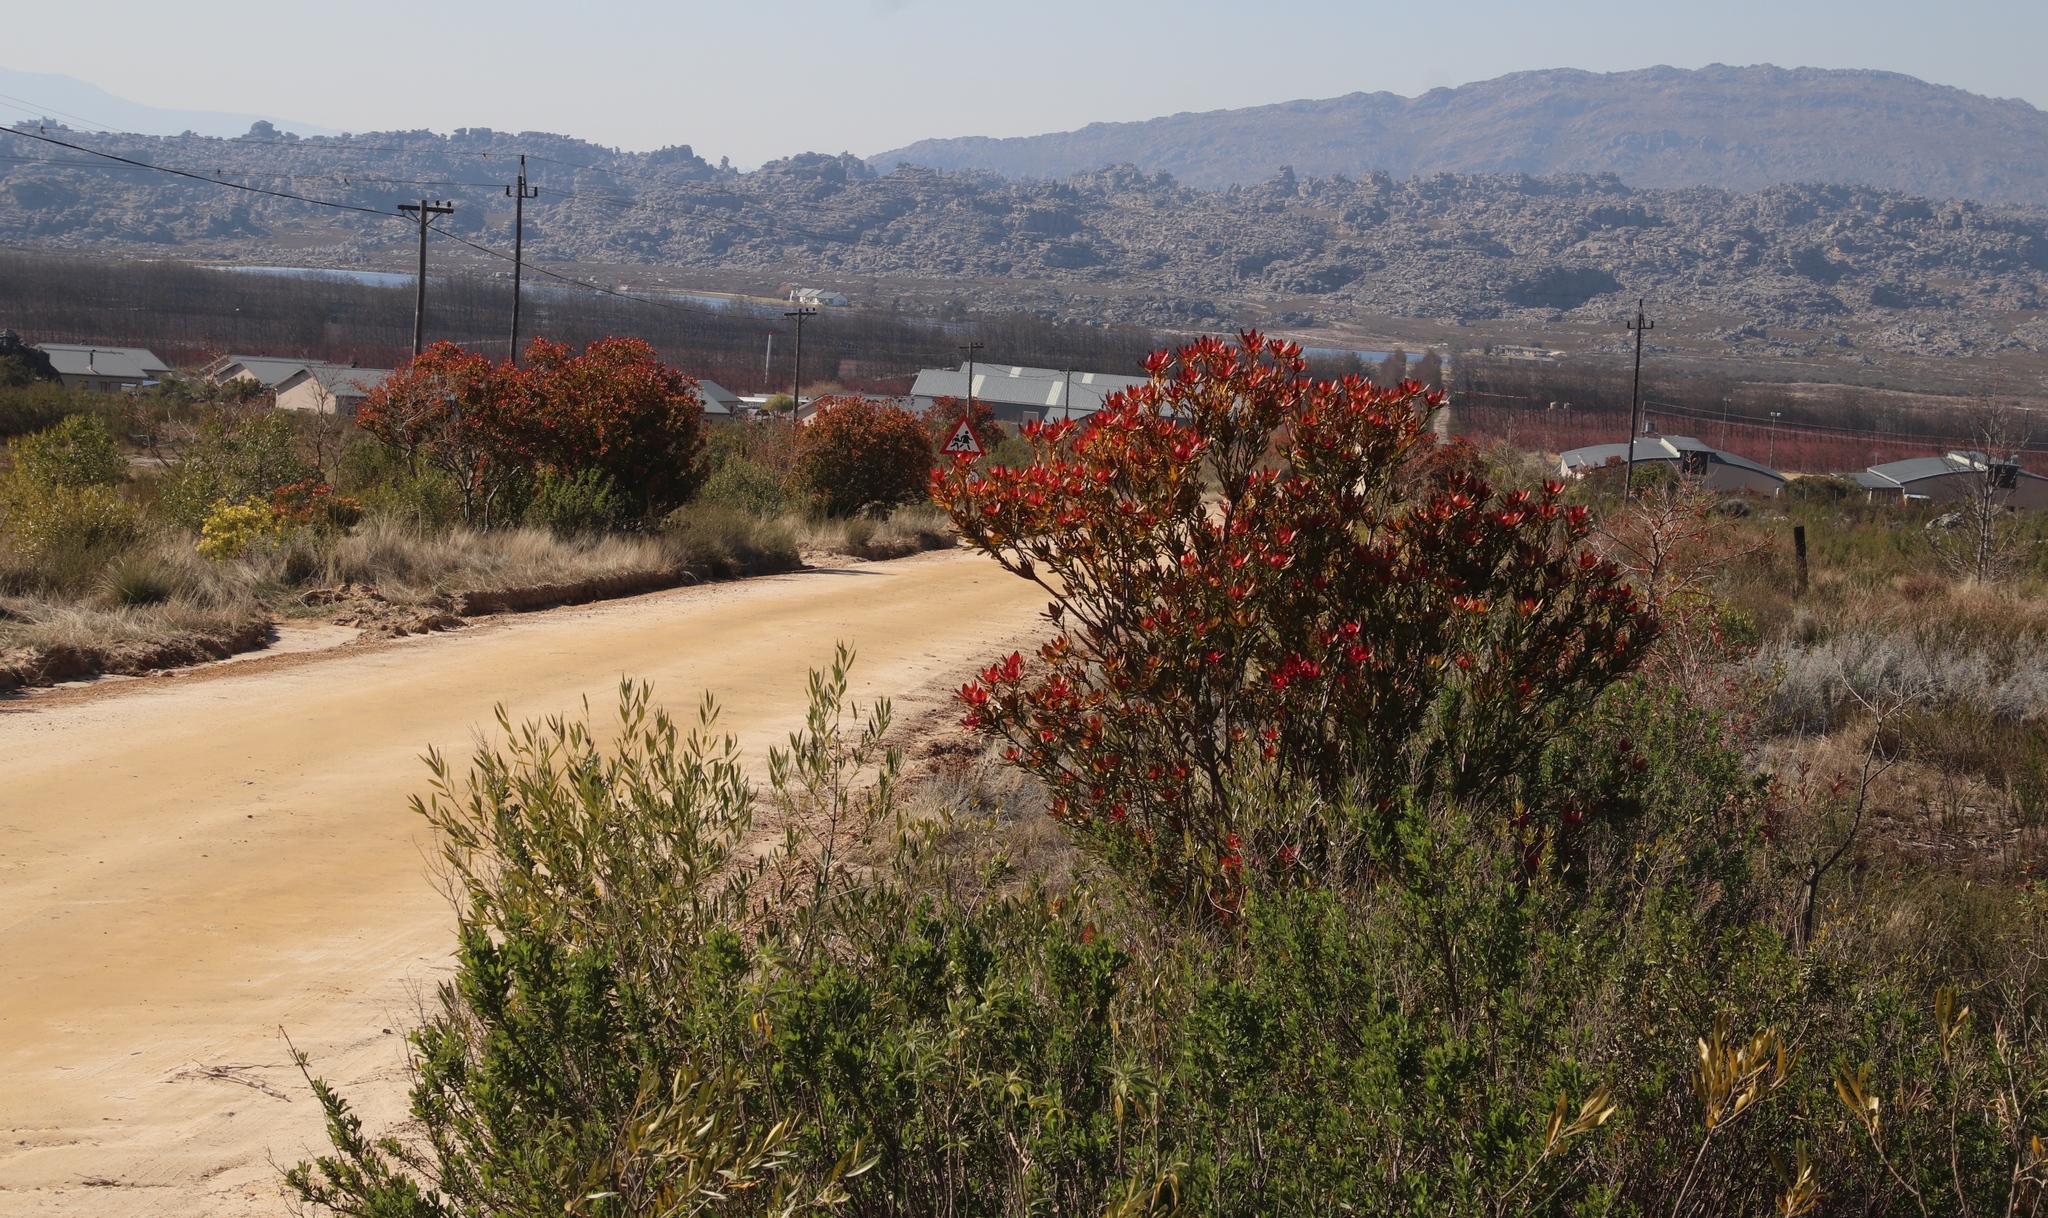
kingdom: Plantae
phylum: Tracheophyta
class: Magnoliopsida
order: Proteales
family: Proteaceae
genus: Leucadendron
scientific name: Leucadendron
